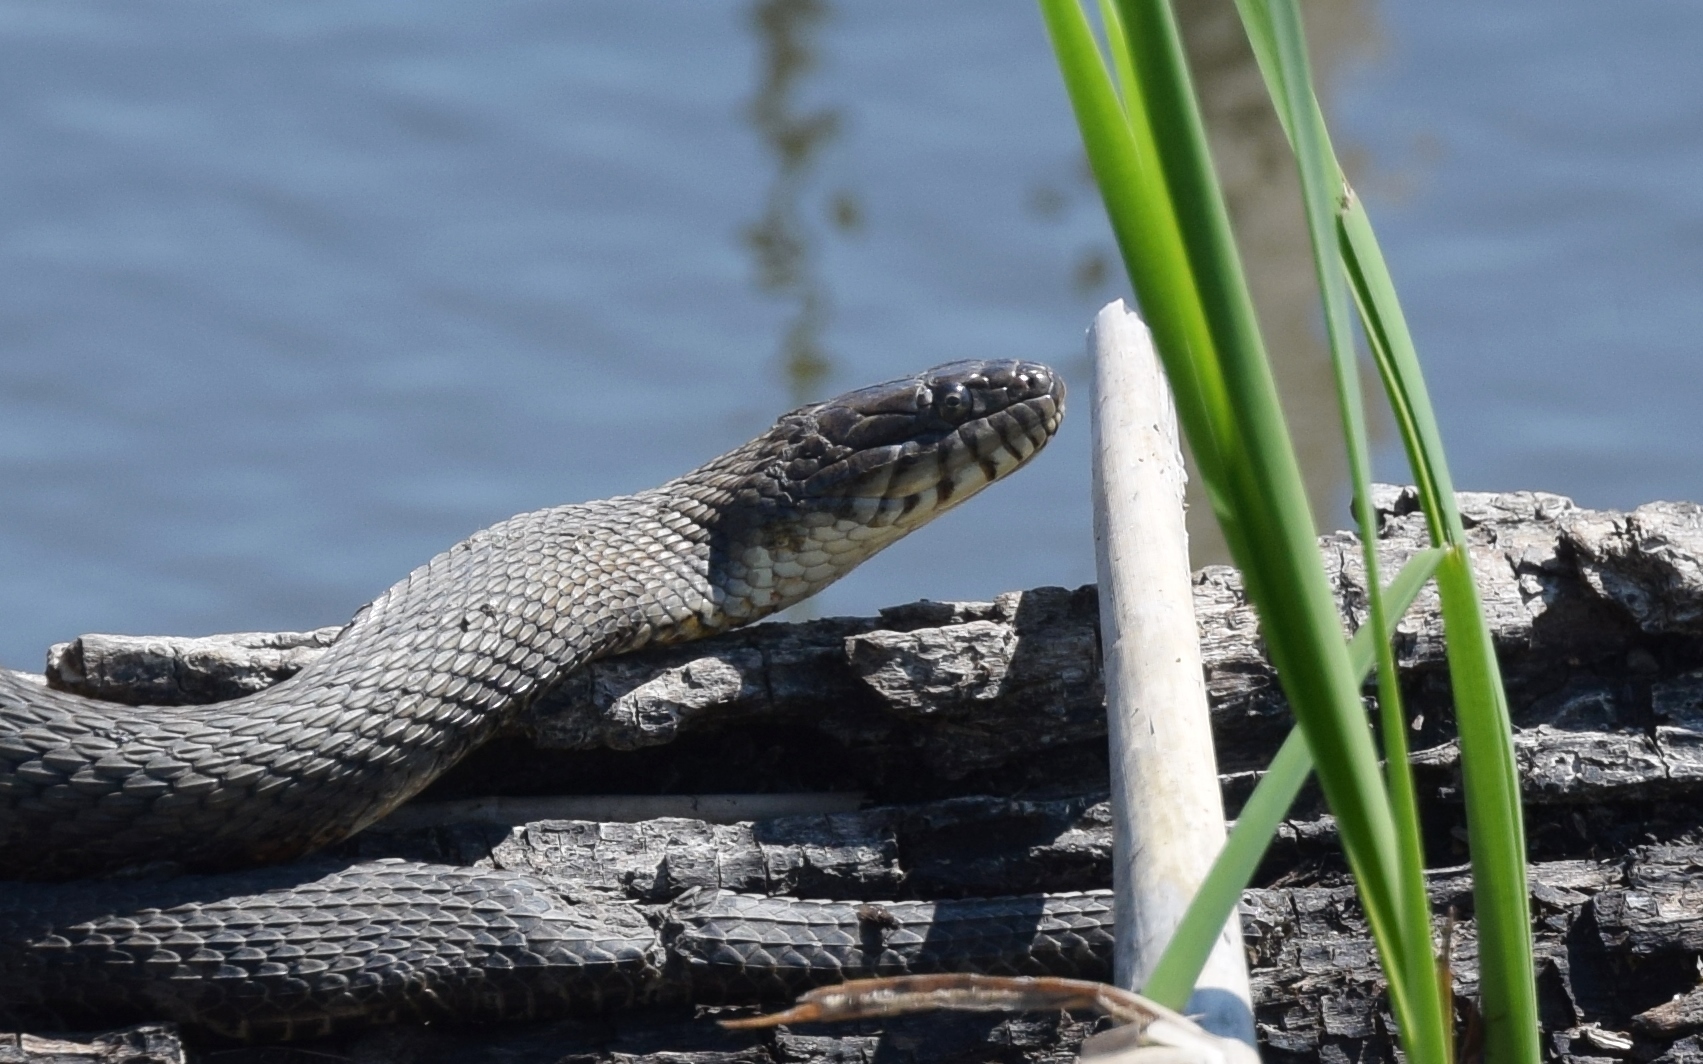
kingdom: Animalia
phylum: Chordata
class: Squamata
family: Colubridae
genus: Nerodia
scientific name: Nerodia sipedon
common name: Northern water snake
